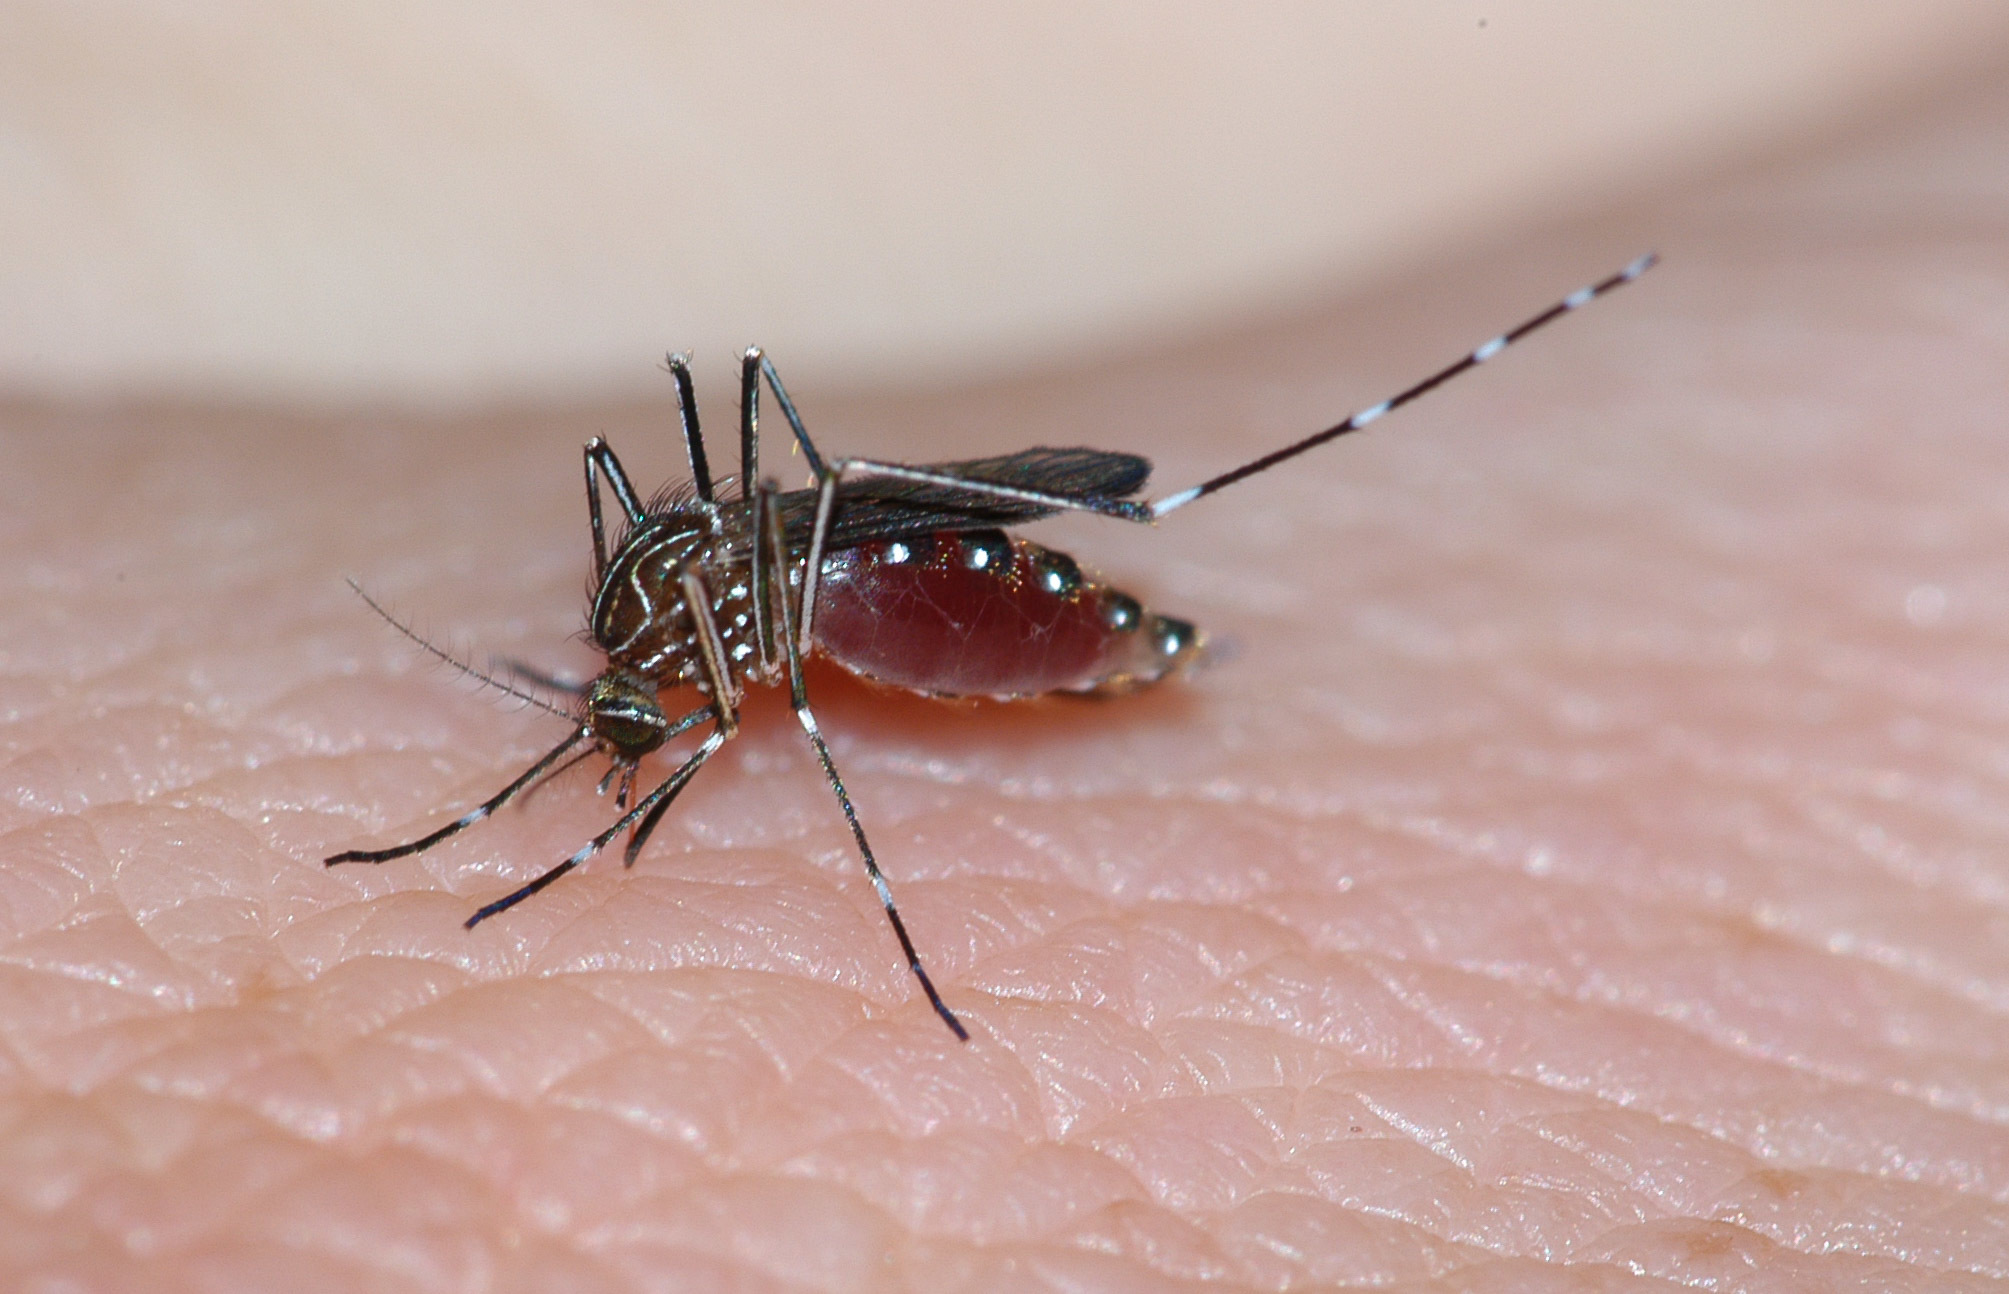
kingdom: Animalia
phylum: Arthropoda
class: Insecta
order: Diptera
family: Culicidae
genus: Aedes
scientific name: Aedes notoscriptus
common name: Australian backyard mosquito
